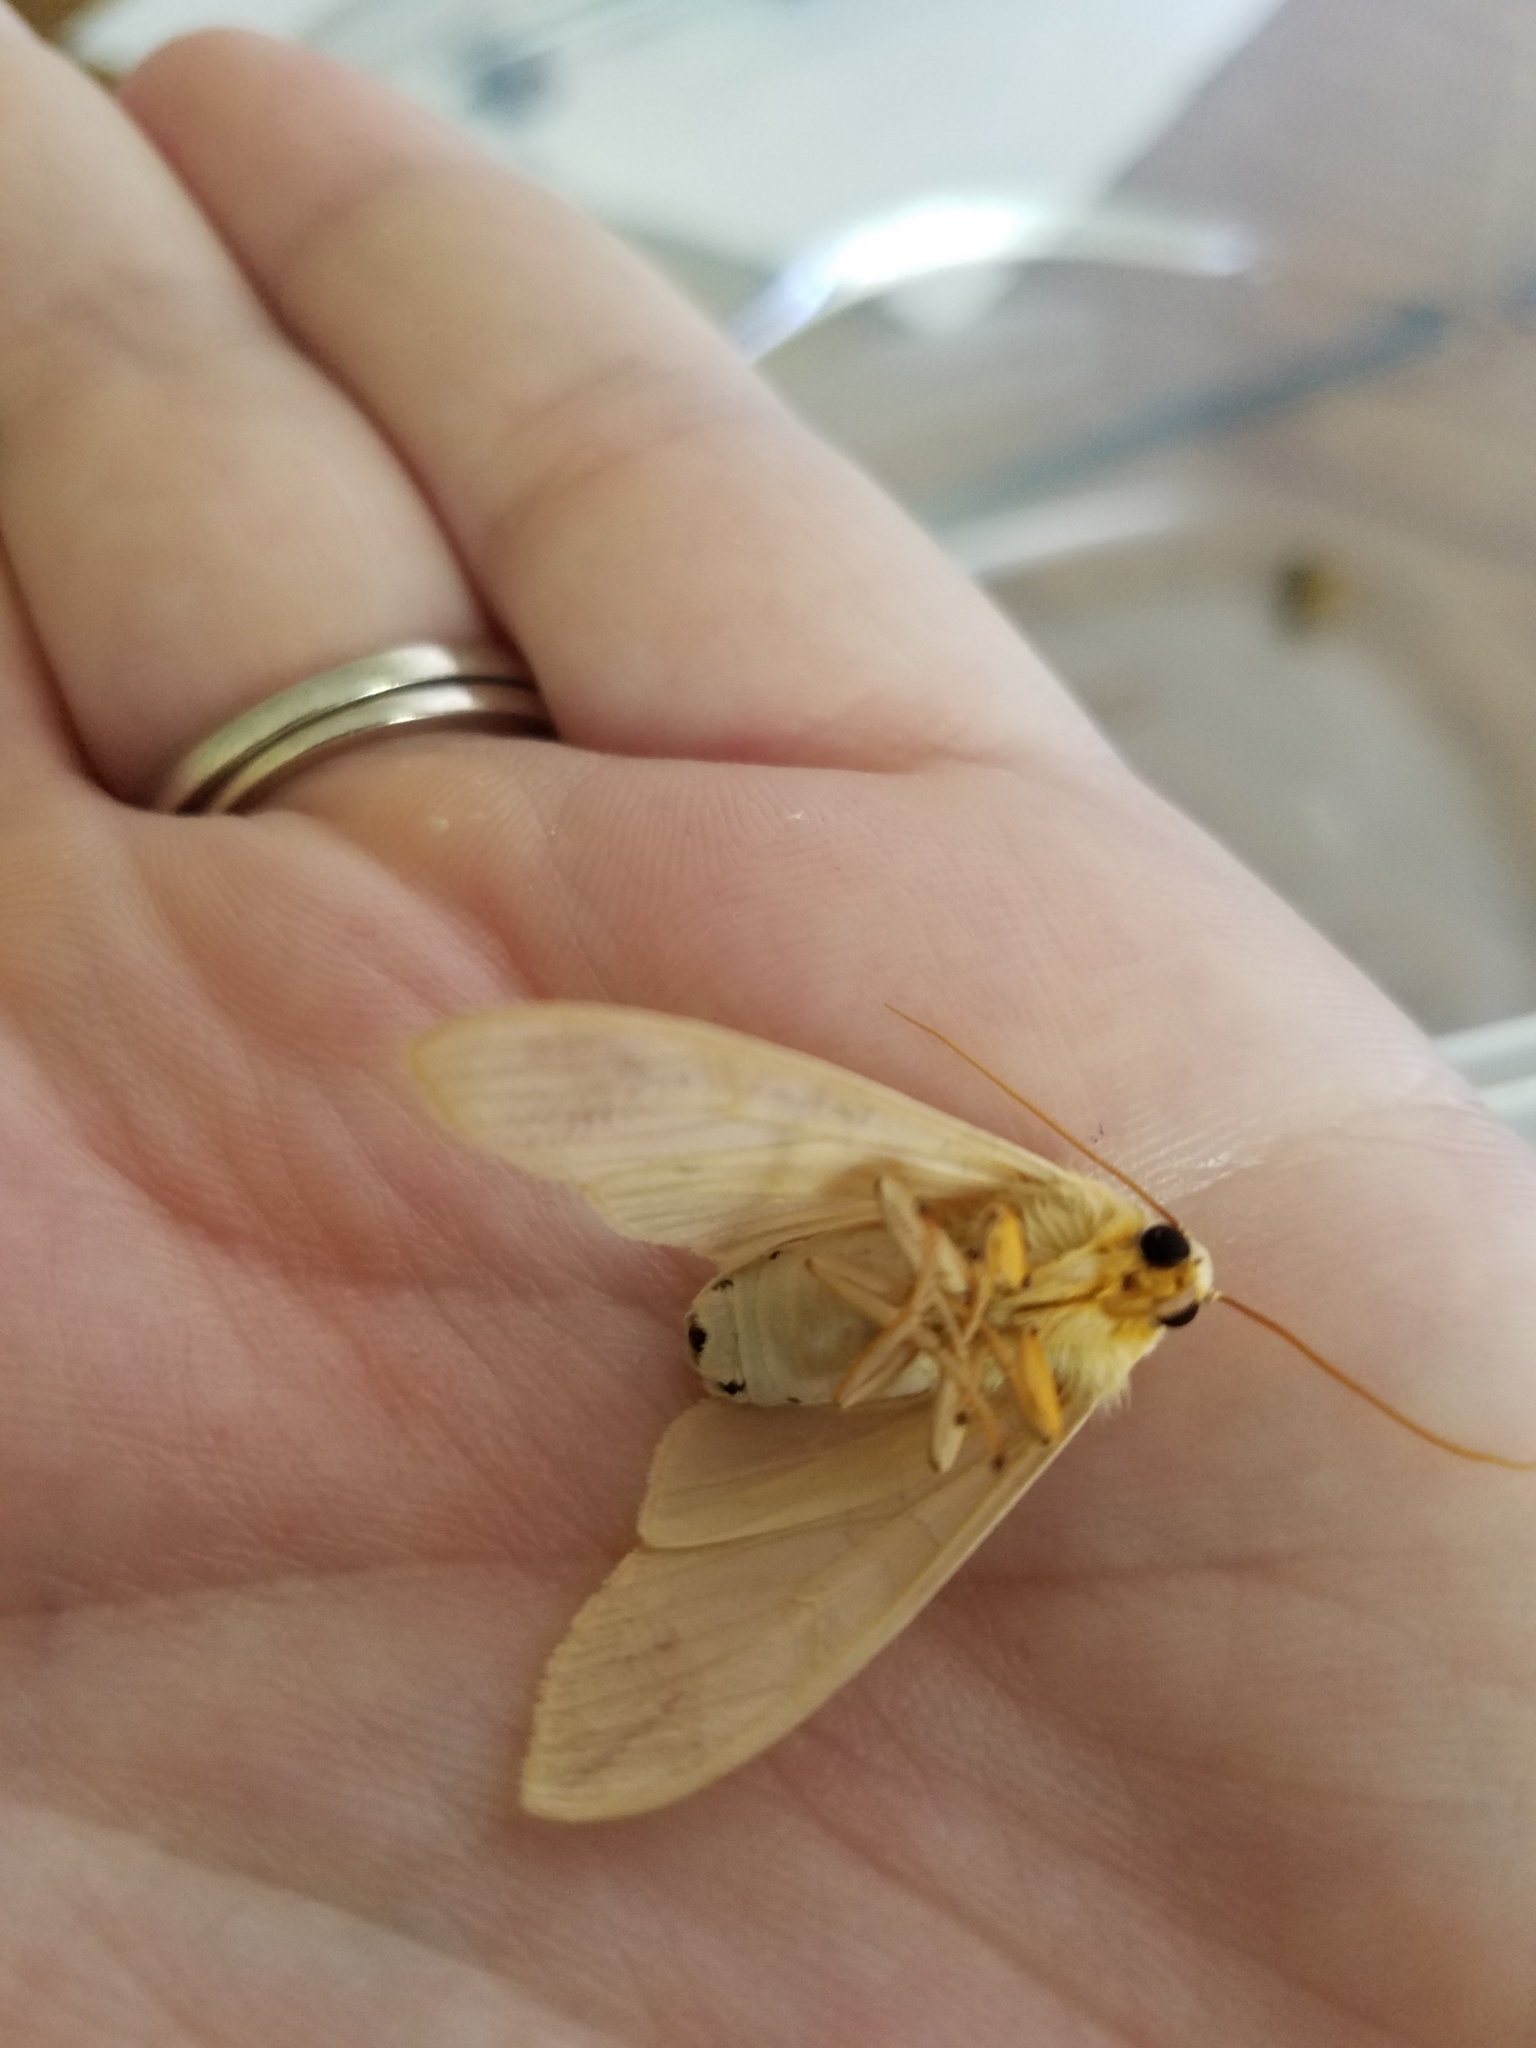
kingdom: Animalia
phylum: Arthropoda
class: Insecta
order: Lepidoptera
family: Erebidae
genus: Halysidota
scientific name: Halysidota tessellaris
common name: Banded tussock moth
